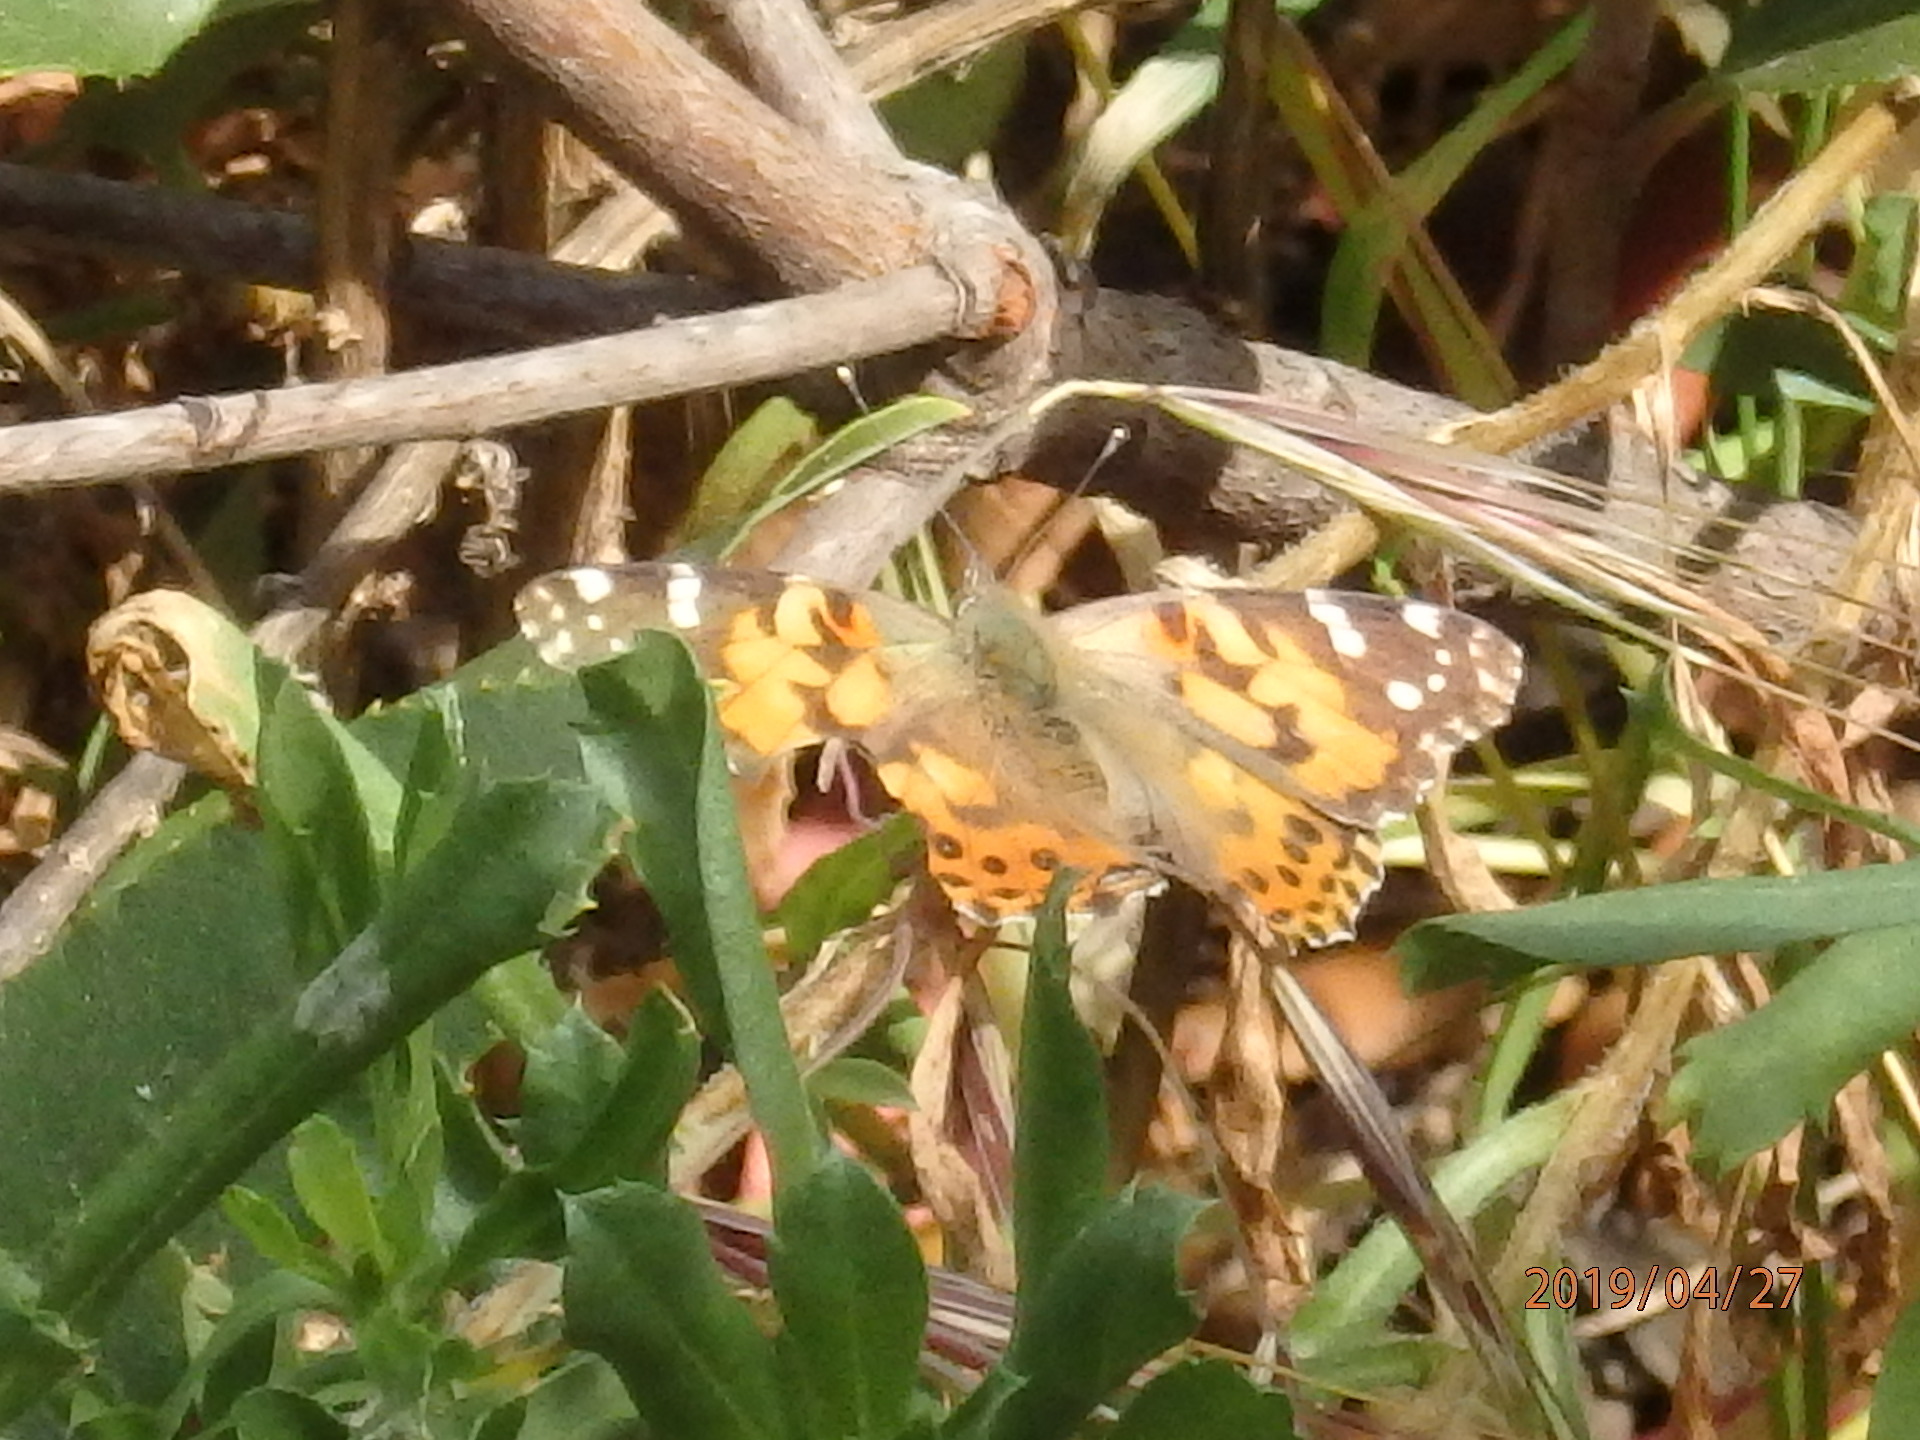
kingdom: Animalia
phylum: Arthropoda
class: Insecta
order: Lepidoptera
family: Nymphalidae
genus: Vanessa
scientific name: Vanessa cardui
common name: Painted lady
